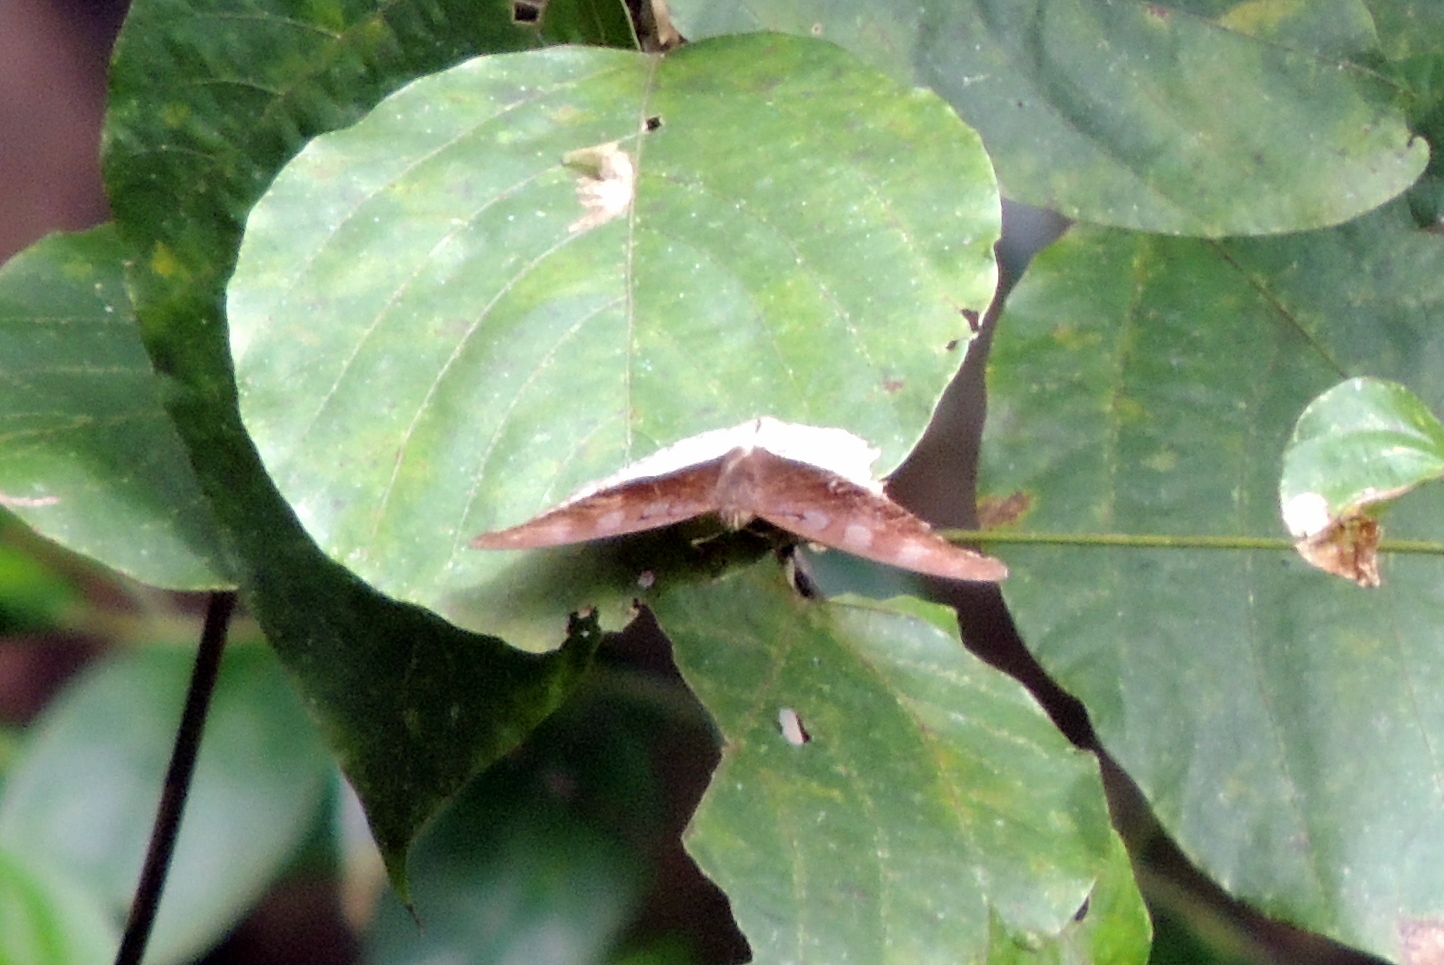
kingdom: Animalia
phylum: Arthropoda
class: Insecta
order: Lepidoptera
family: Nymphalidae
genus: Tanaecia
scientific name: Tanaecia cocytus
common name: Lavender count
